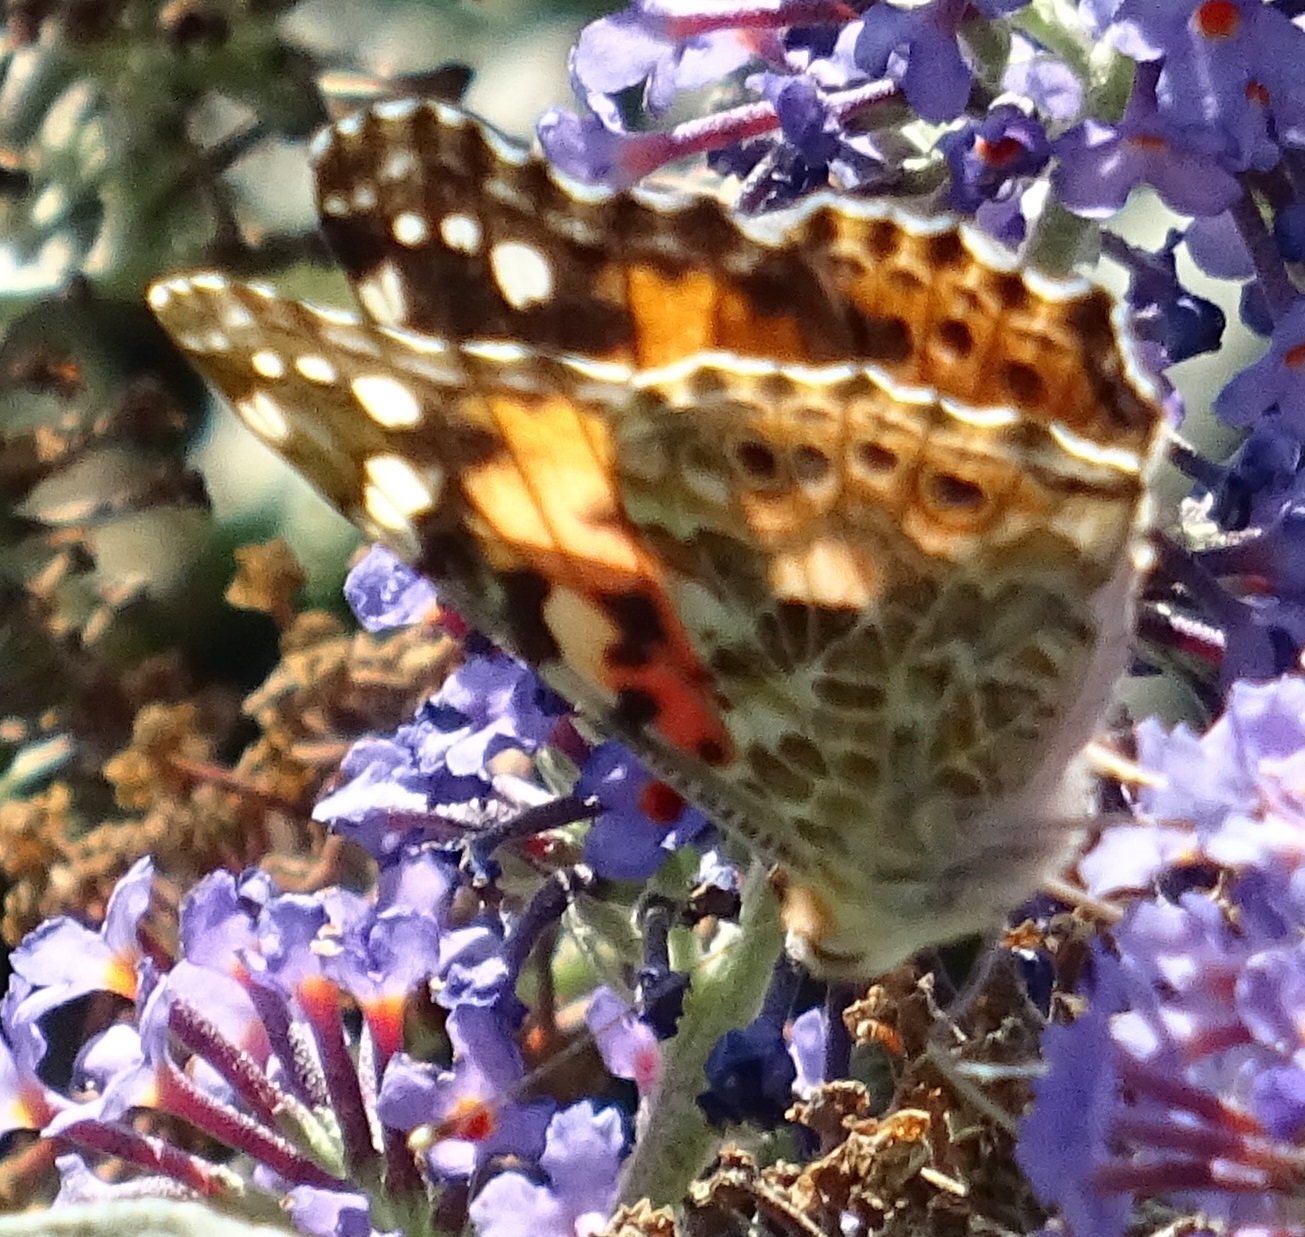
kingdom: Animalia
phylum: Arthropoda
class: Insecta
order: Lepidoptera
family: Nymphalidae
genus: Vanessa
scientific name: Vanessa cardui
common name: Painted lady
